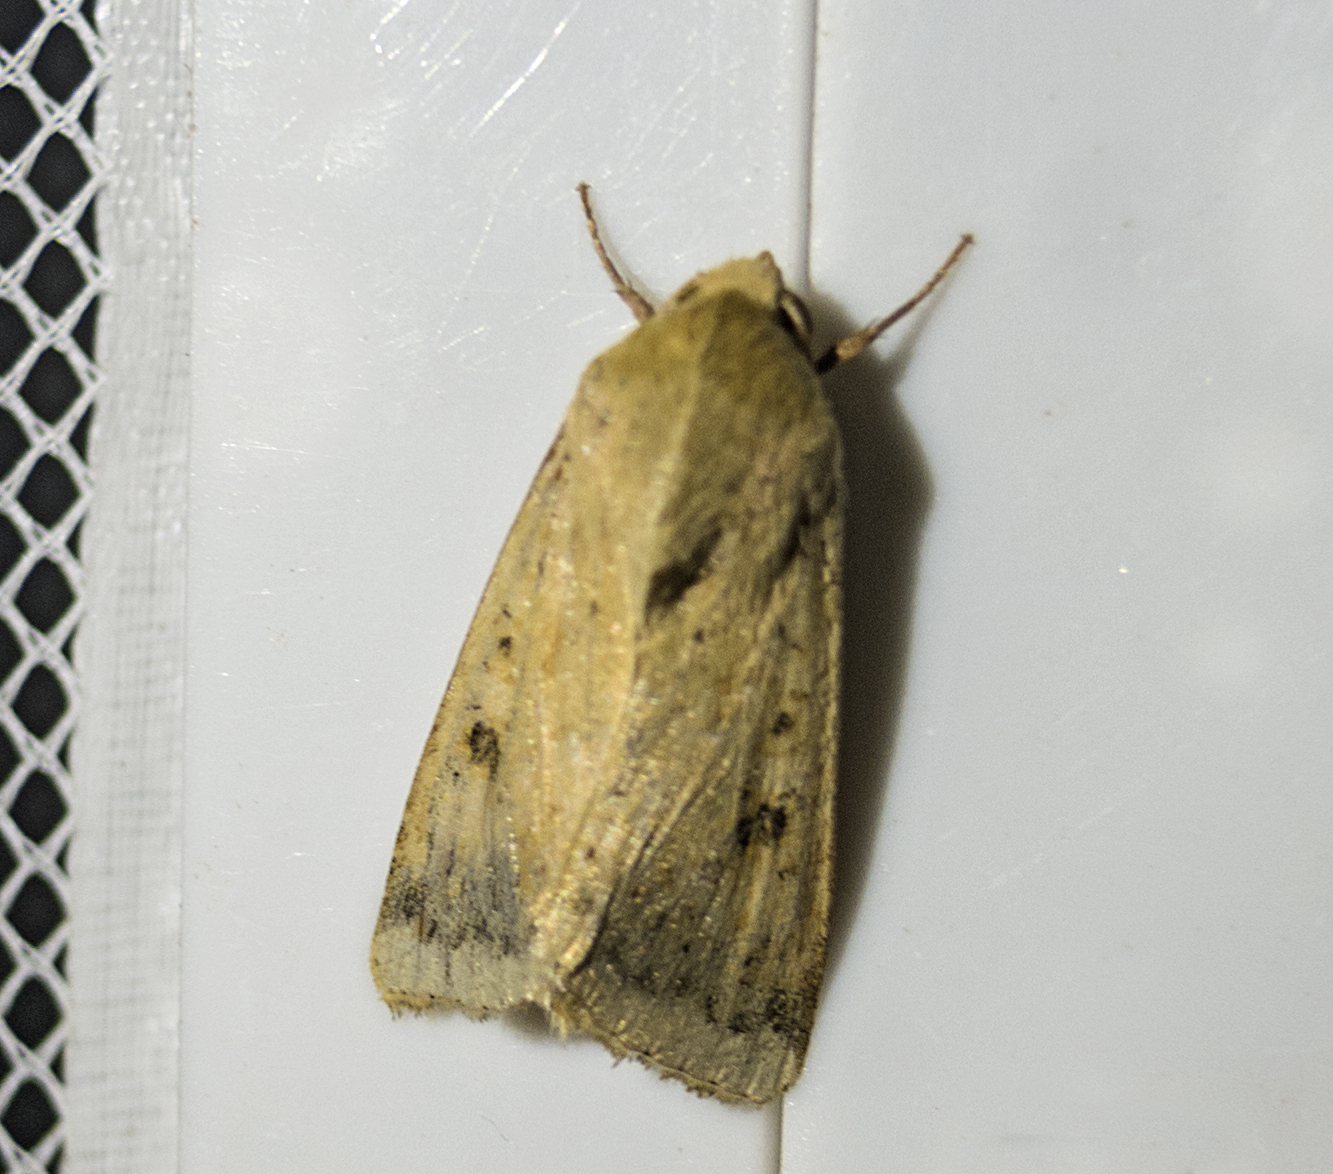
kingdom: Animalia
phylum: Arthropoda
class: Insecta
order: Lepidoptera
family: Noctuidae
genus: Helicoverpa
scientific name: Helicoverpa armigera
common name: Cotton bollworm
